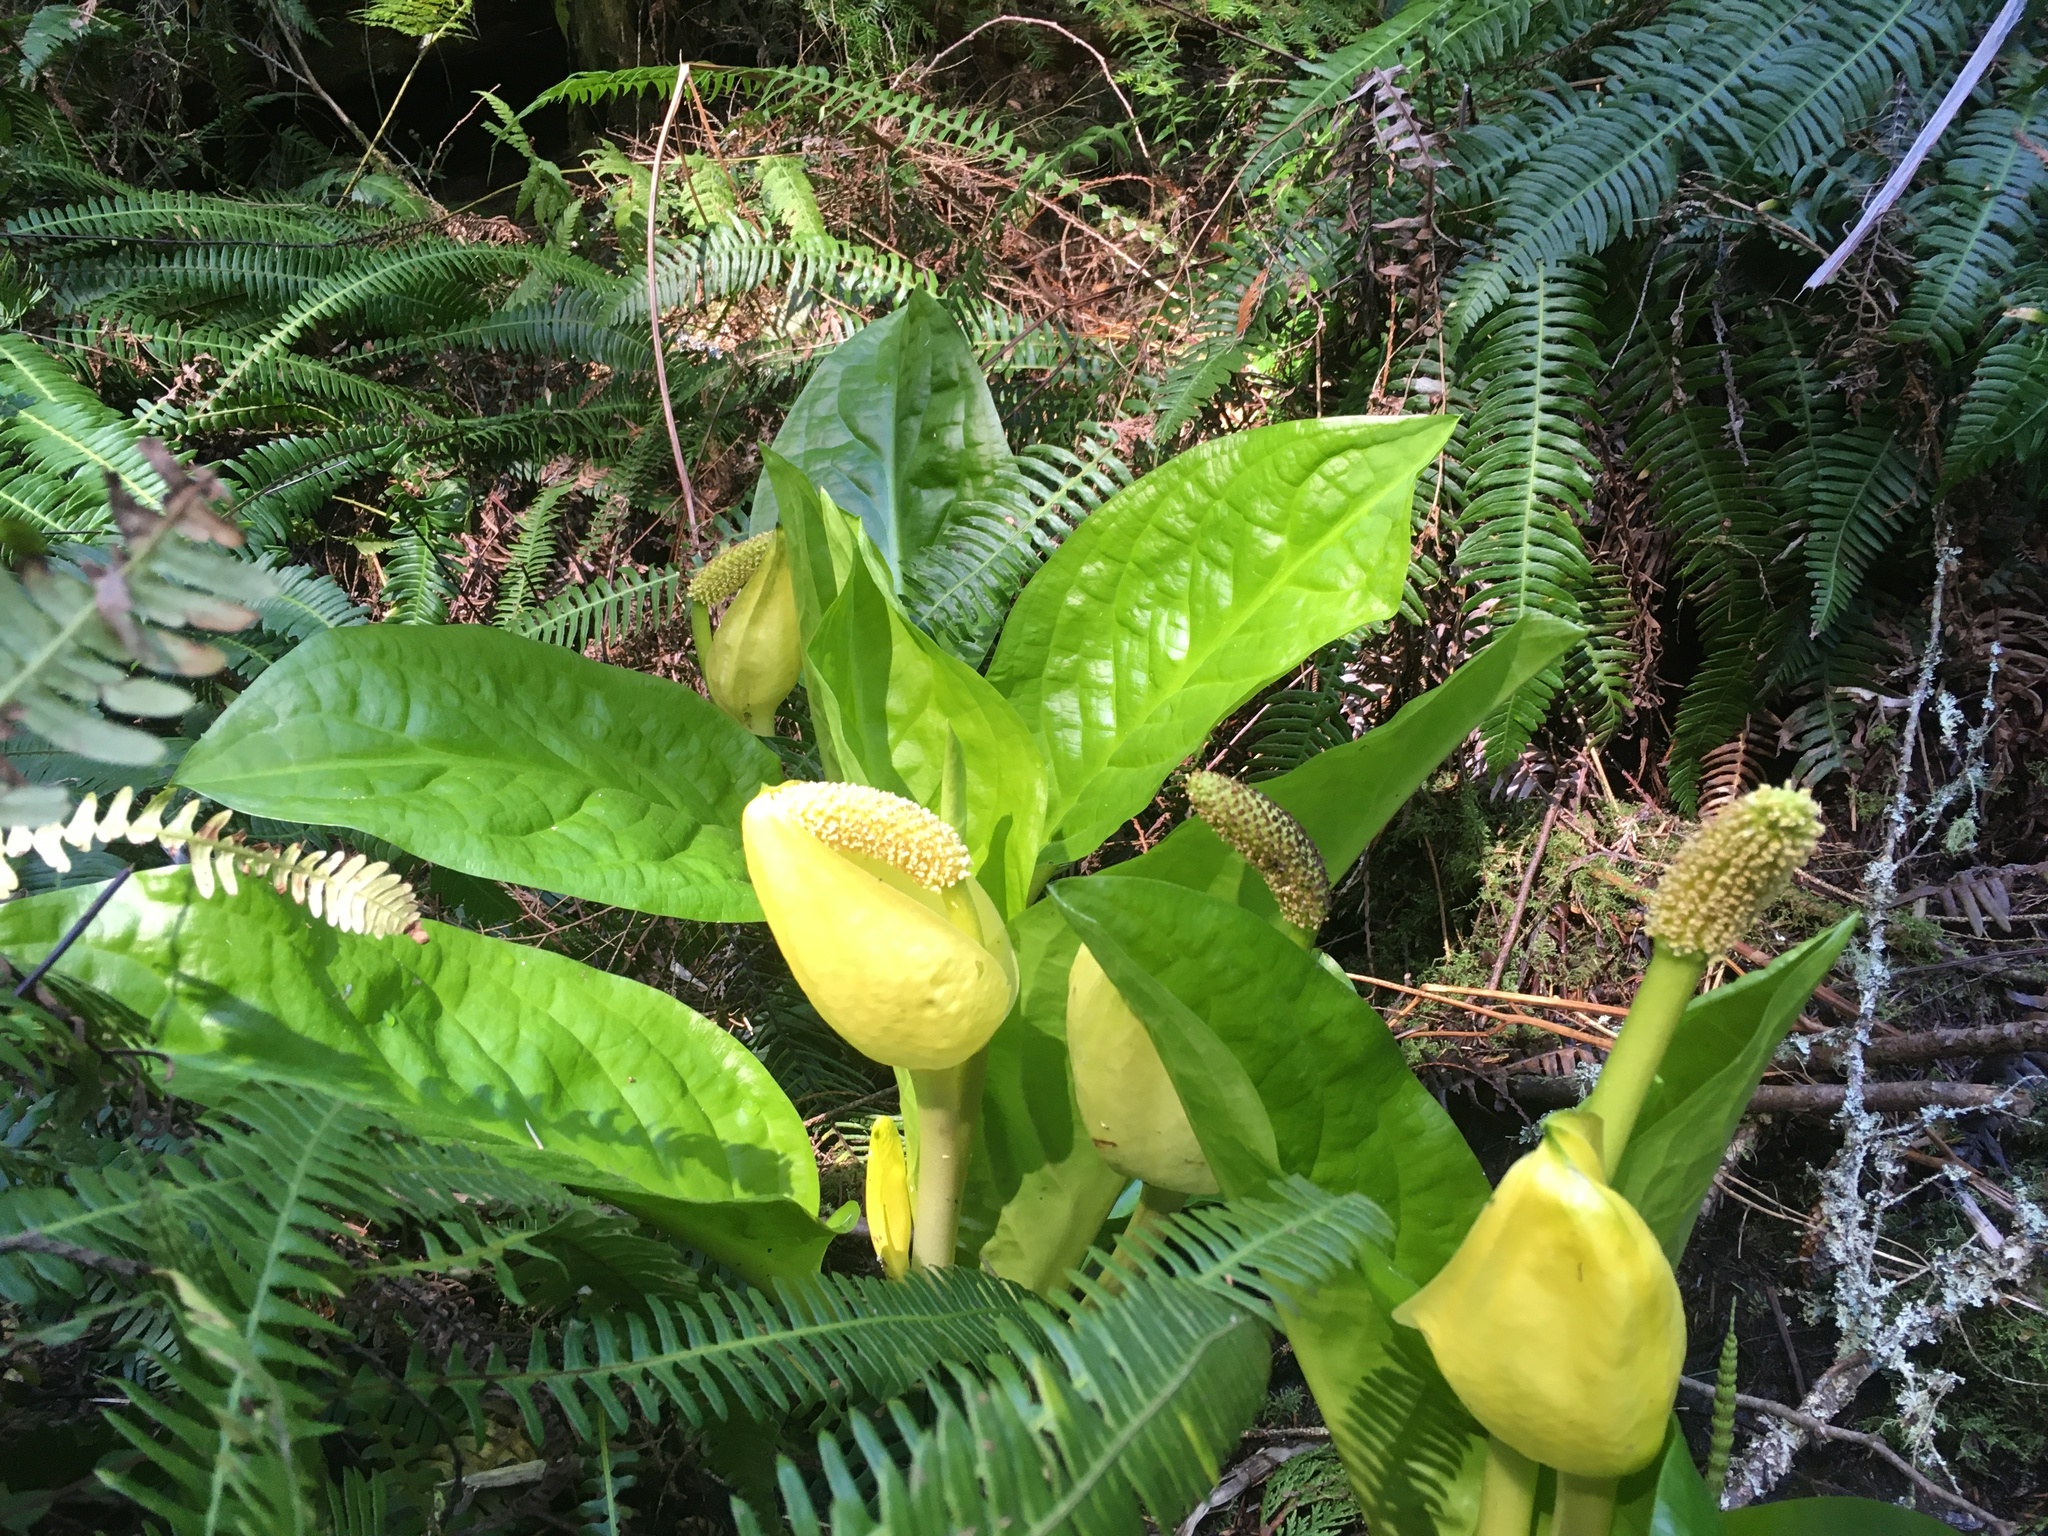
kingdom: Plantae
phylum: Tracheophyta
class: Liliopsida
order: Alismatales
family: Araceae
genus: Lysichiton
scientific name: Lysichiton americanus
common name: American skunk cabbage
